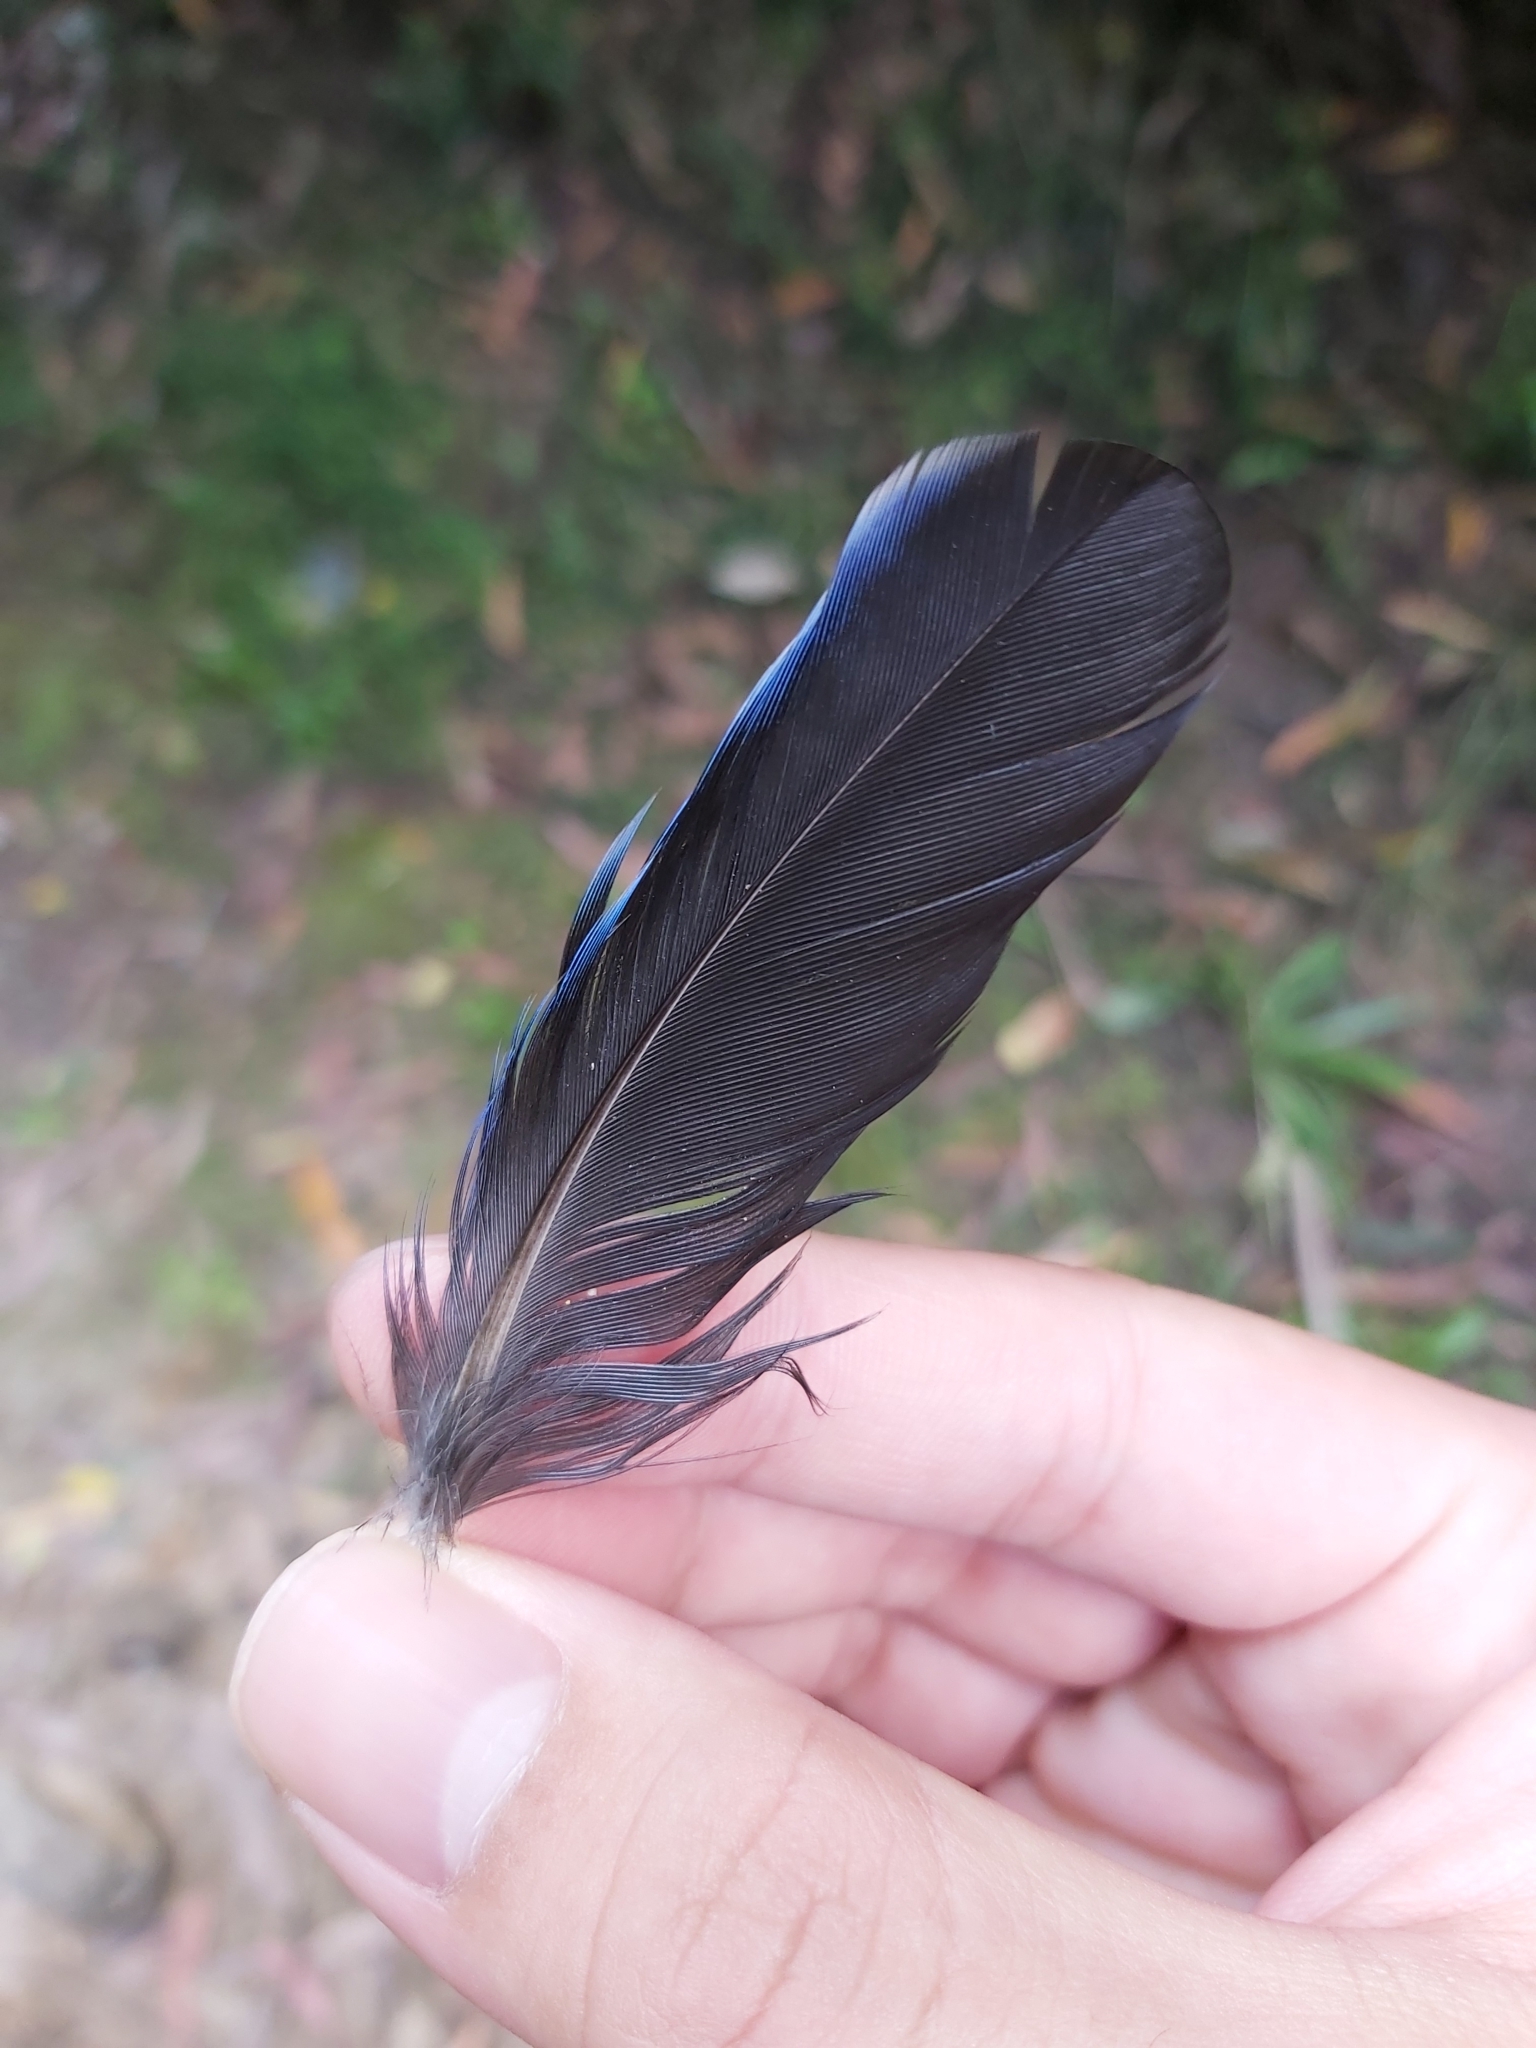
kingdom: Animalia
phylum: Chordata
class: Aves
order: Psittaciformes
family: Psittacidae
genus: Platycercus
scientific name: Platycercus elegans
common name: Crimson rosella
